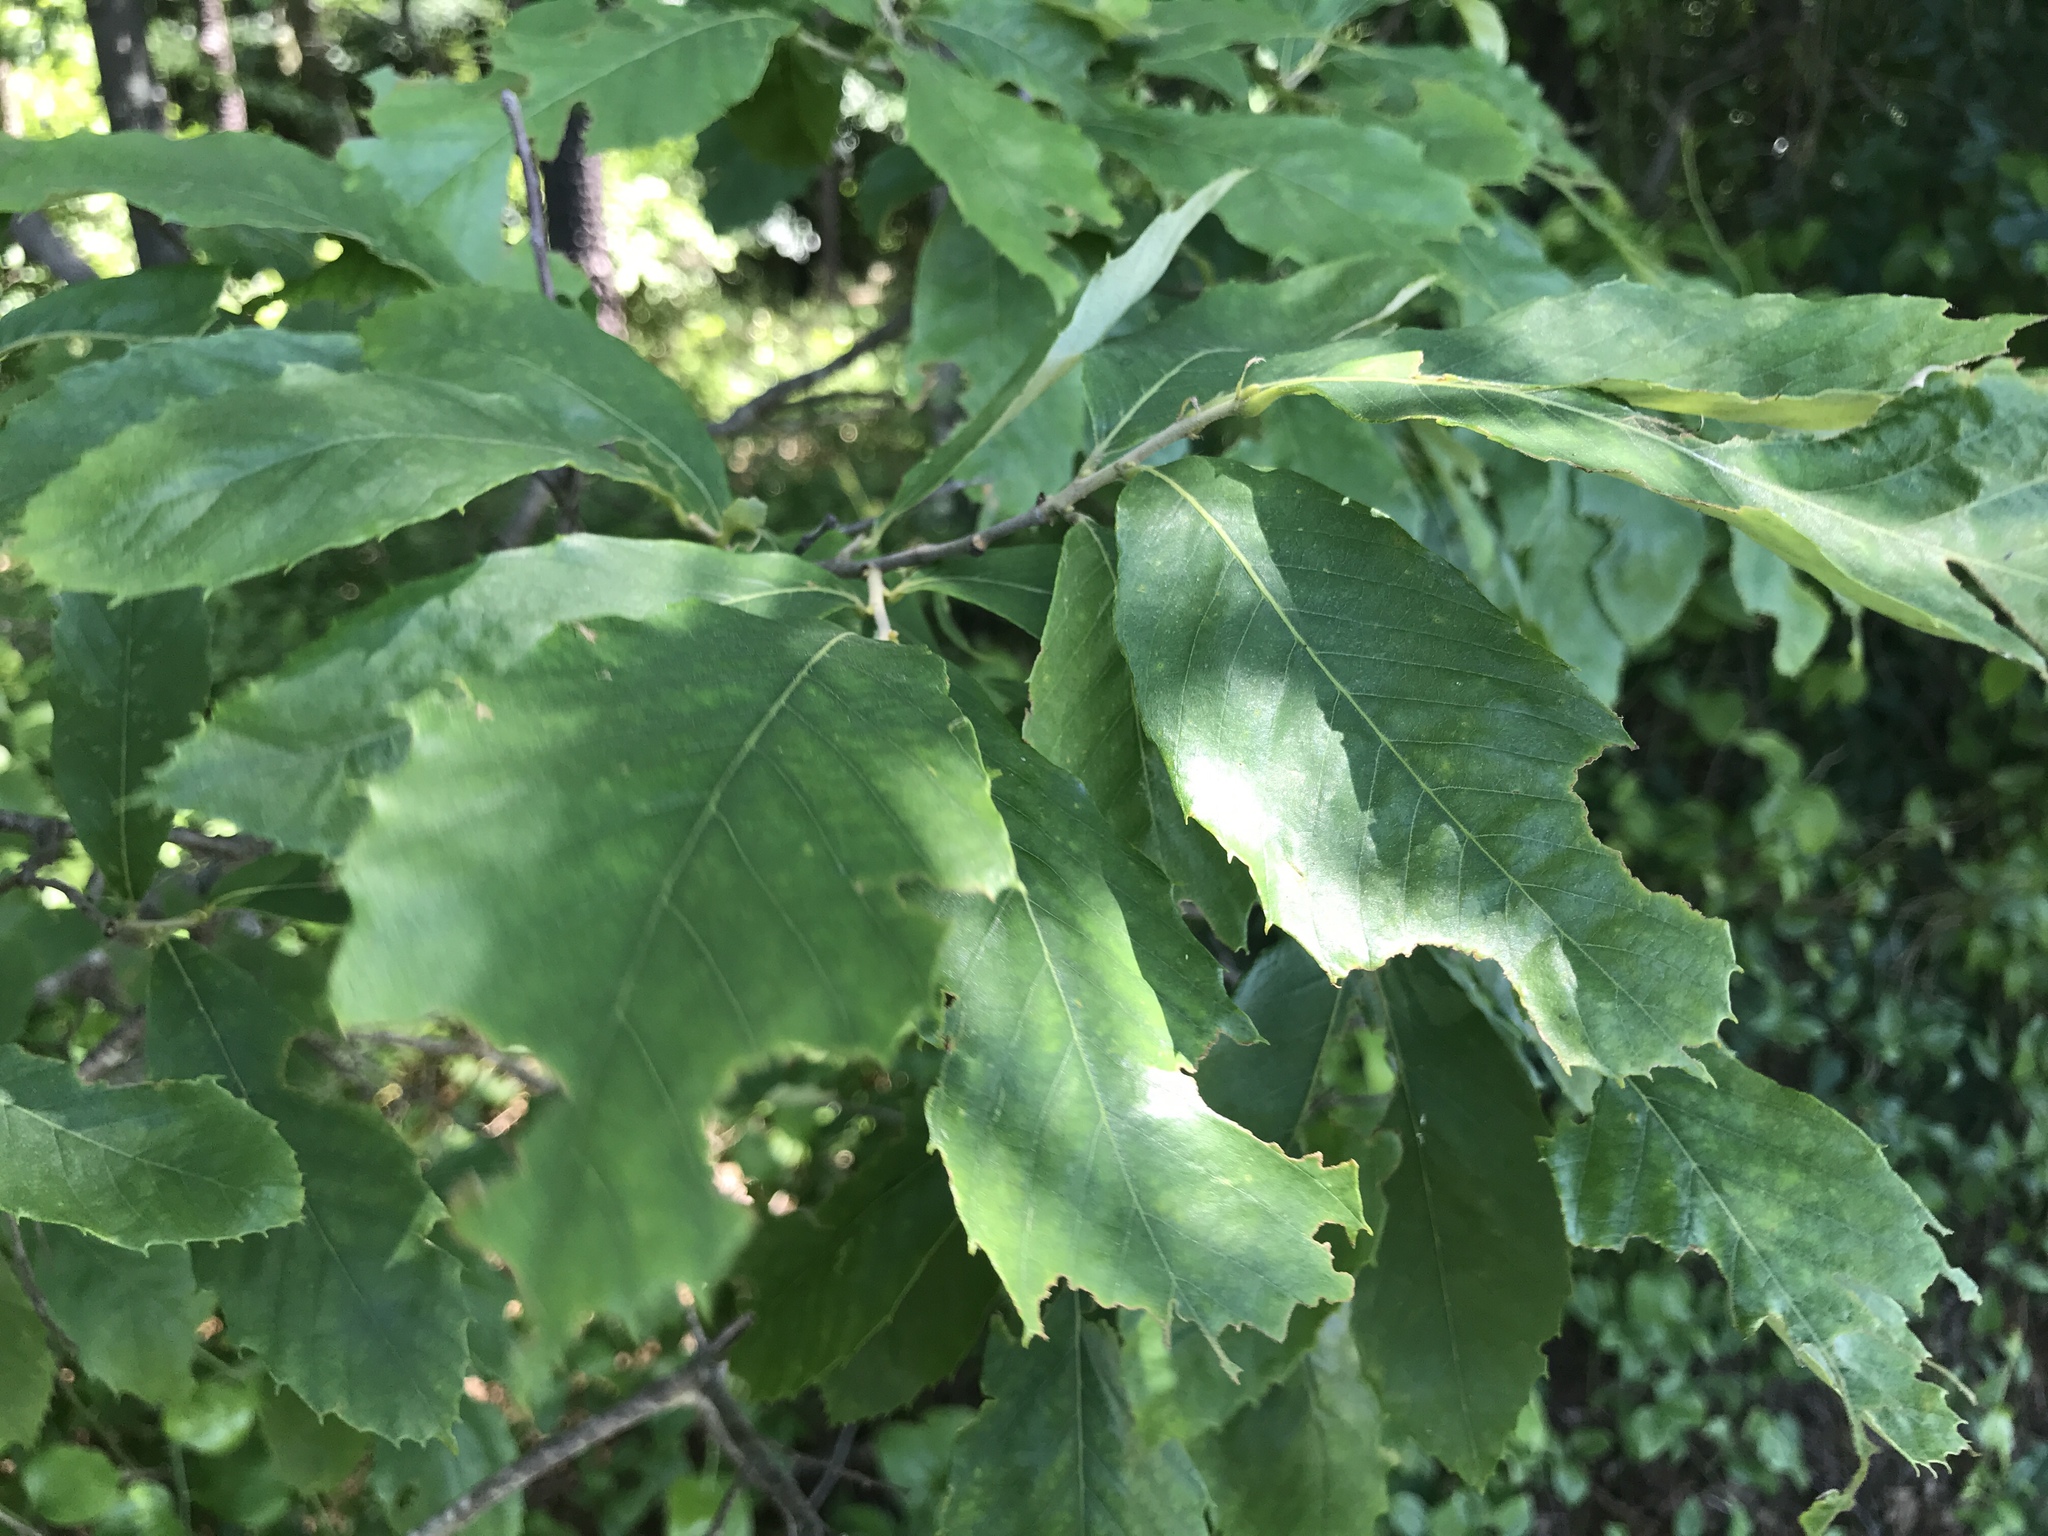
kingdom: Plantae
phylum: Tracheophyta
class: Magnoliopsida
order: Fagales
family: Fagaceae
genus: Castanea
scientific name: Castanea pumila
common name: Chinkapin
